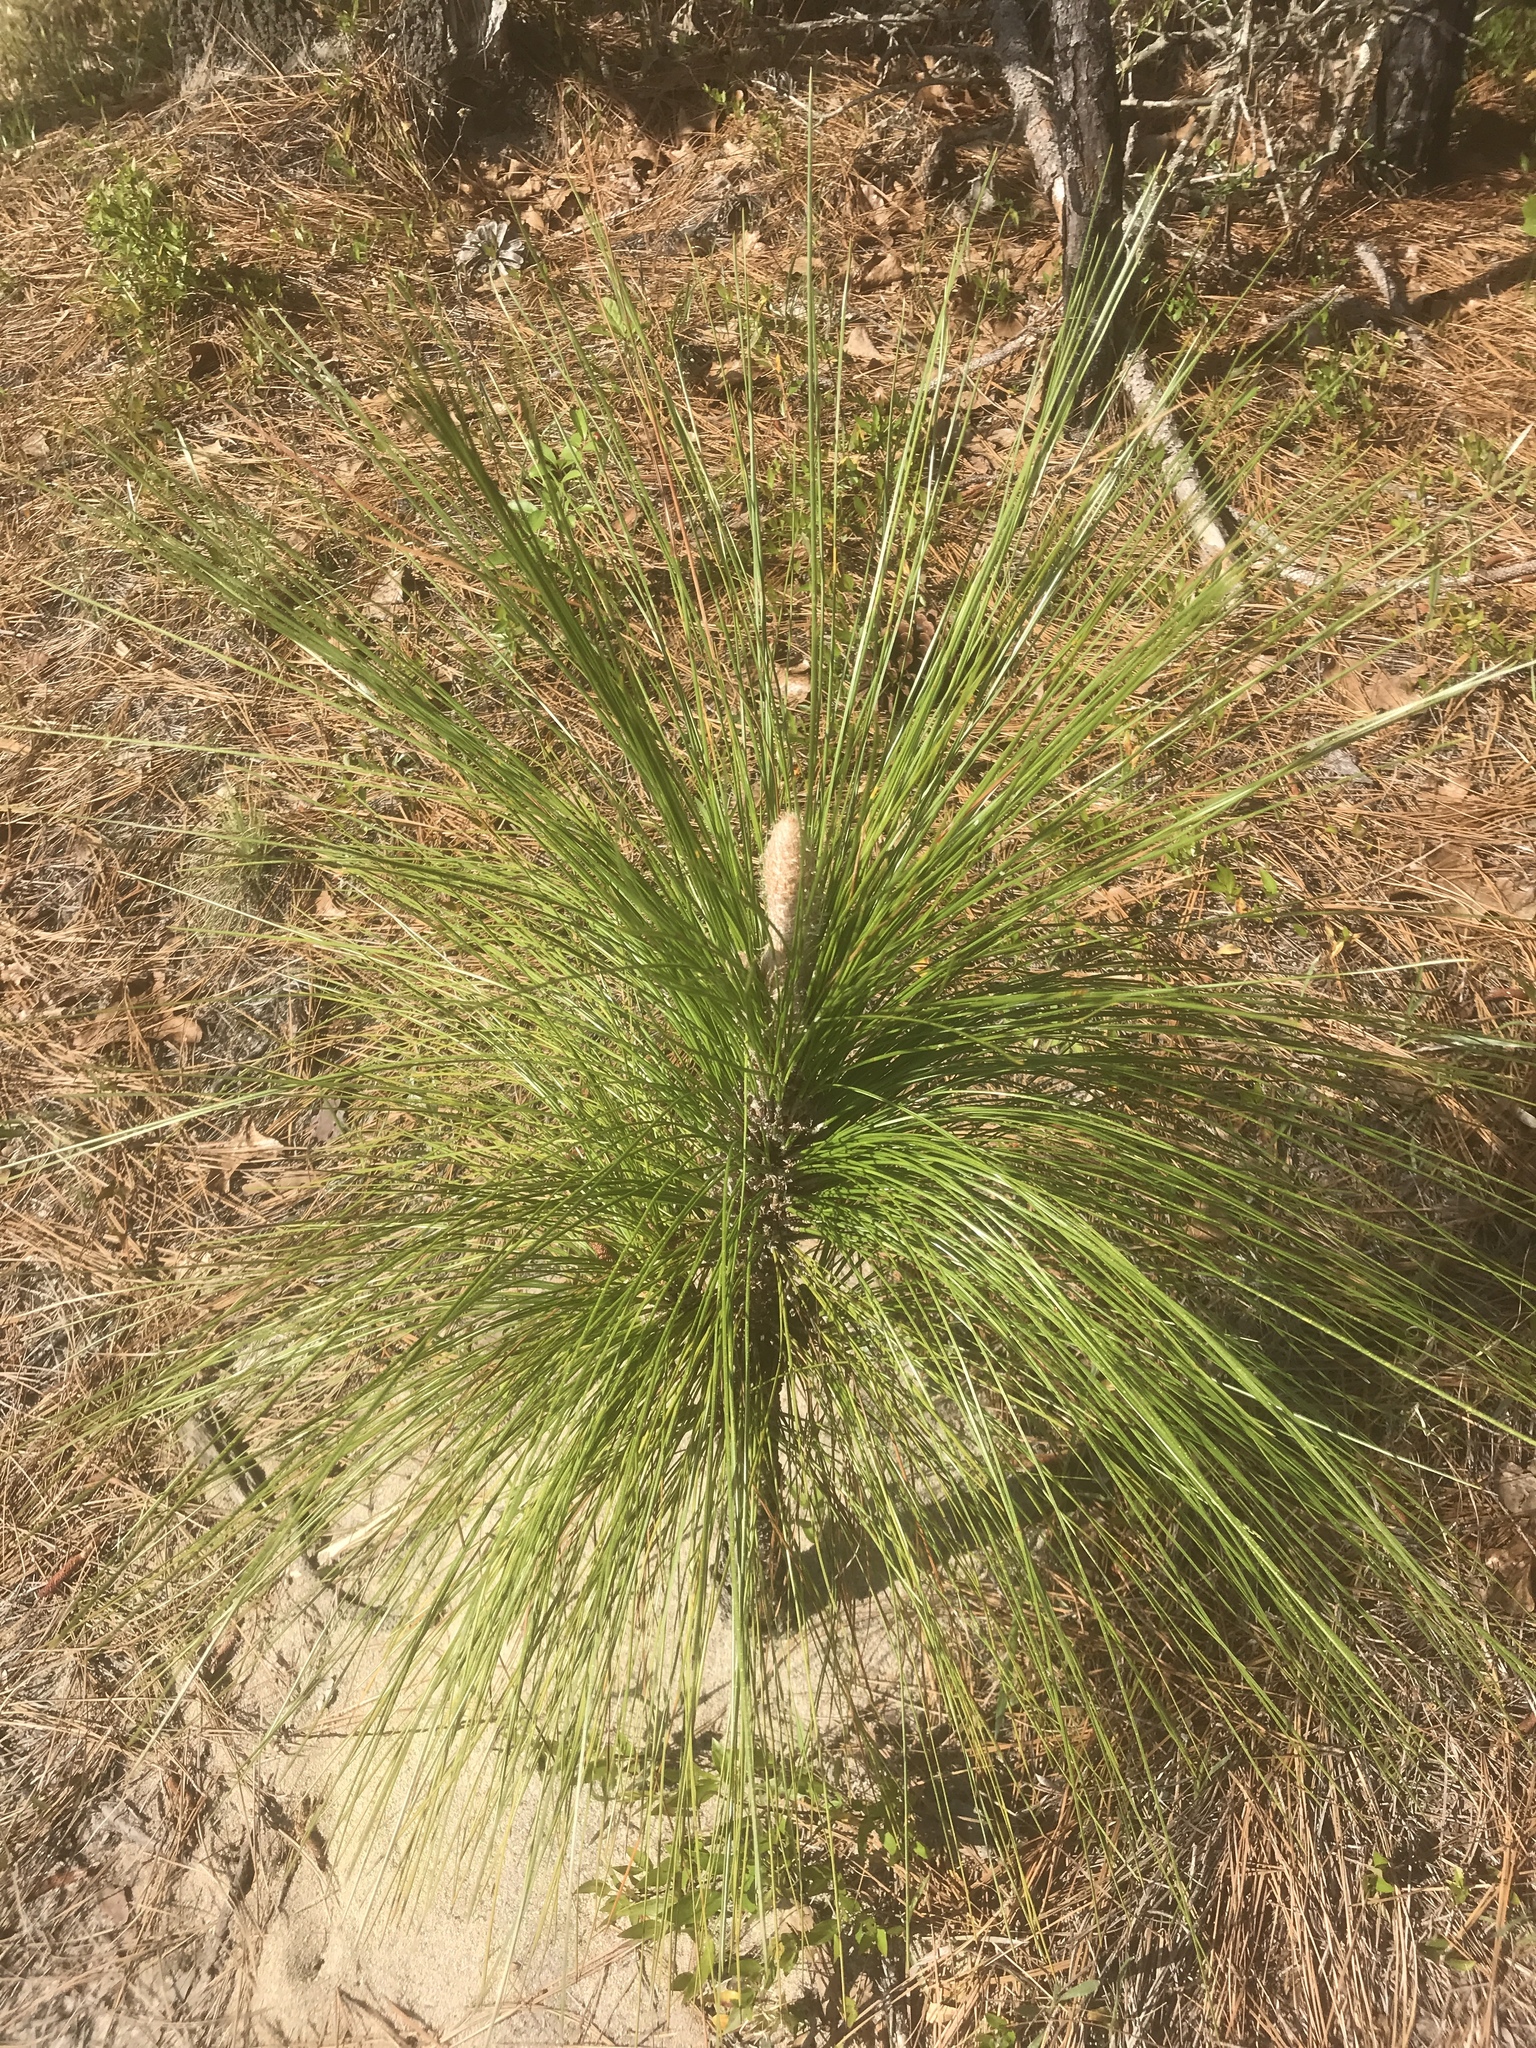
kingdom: Plantae
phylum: Tracheophyta
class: Pinopsida
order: Pinales
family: Pinaceae
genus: Pinus
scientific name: Pinus palustris
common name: Longleaf pine
